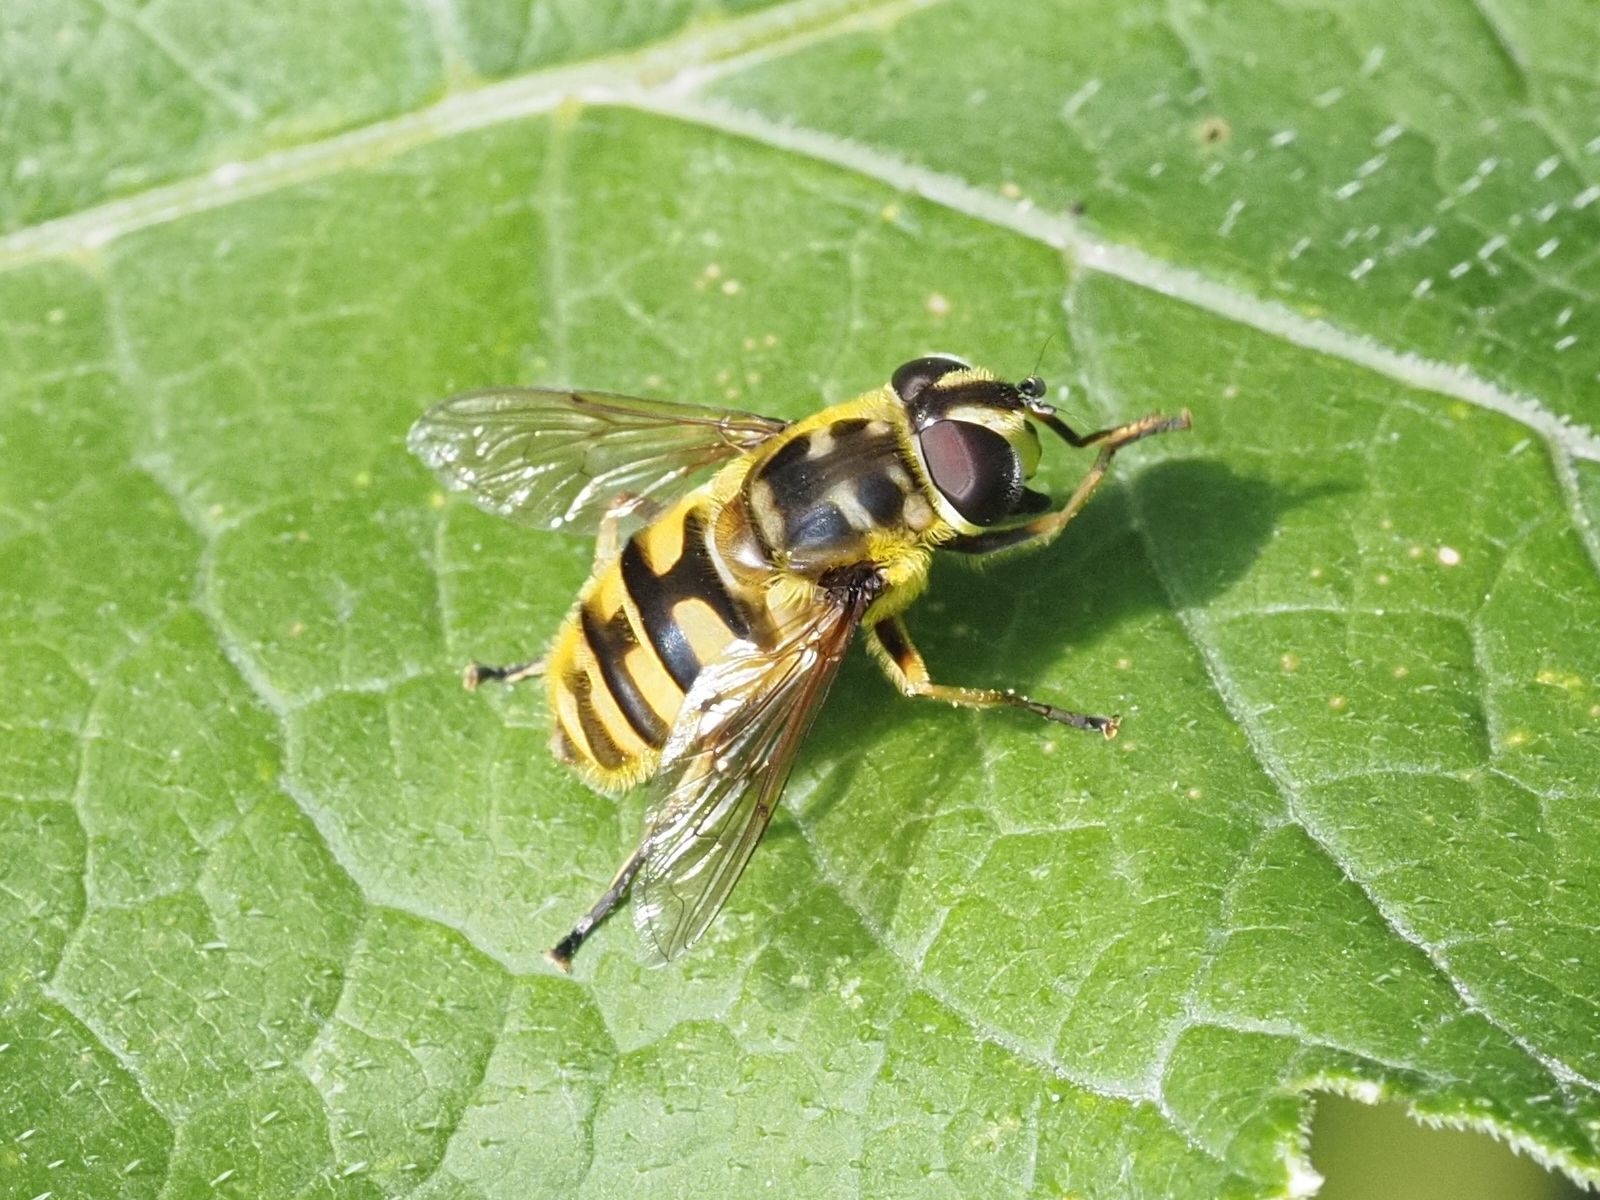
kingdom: Animalia
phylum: Arthropoda
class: Insecta
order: Diptera
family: Syrphidae
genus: Myathropa
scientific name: Myathropa florea
